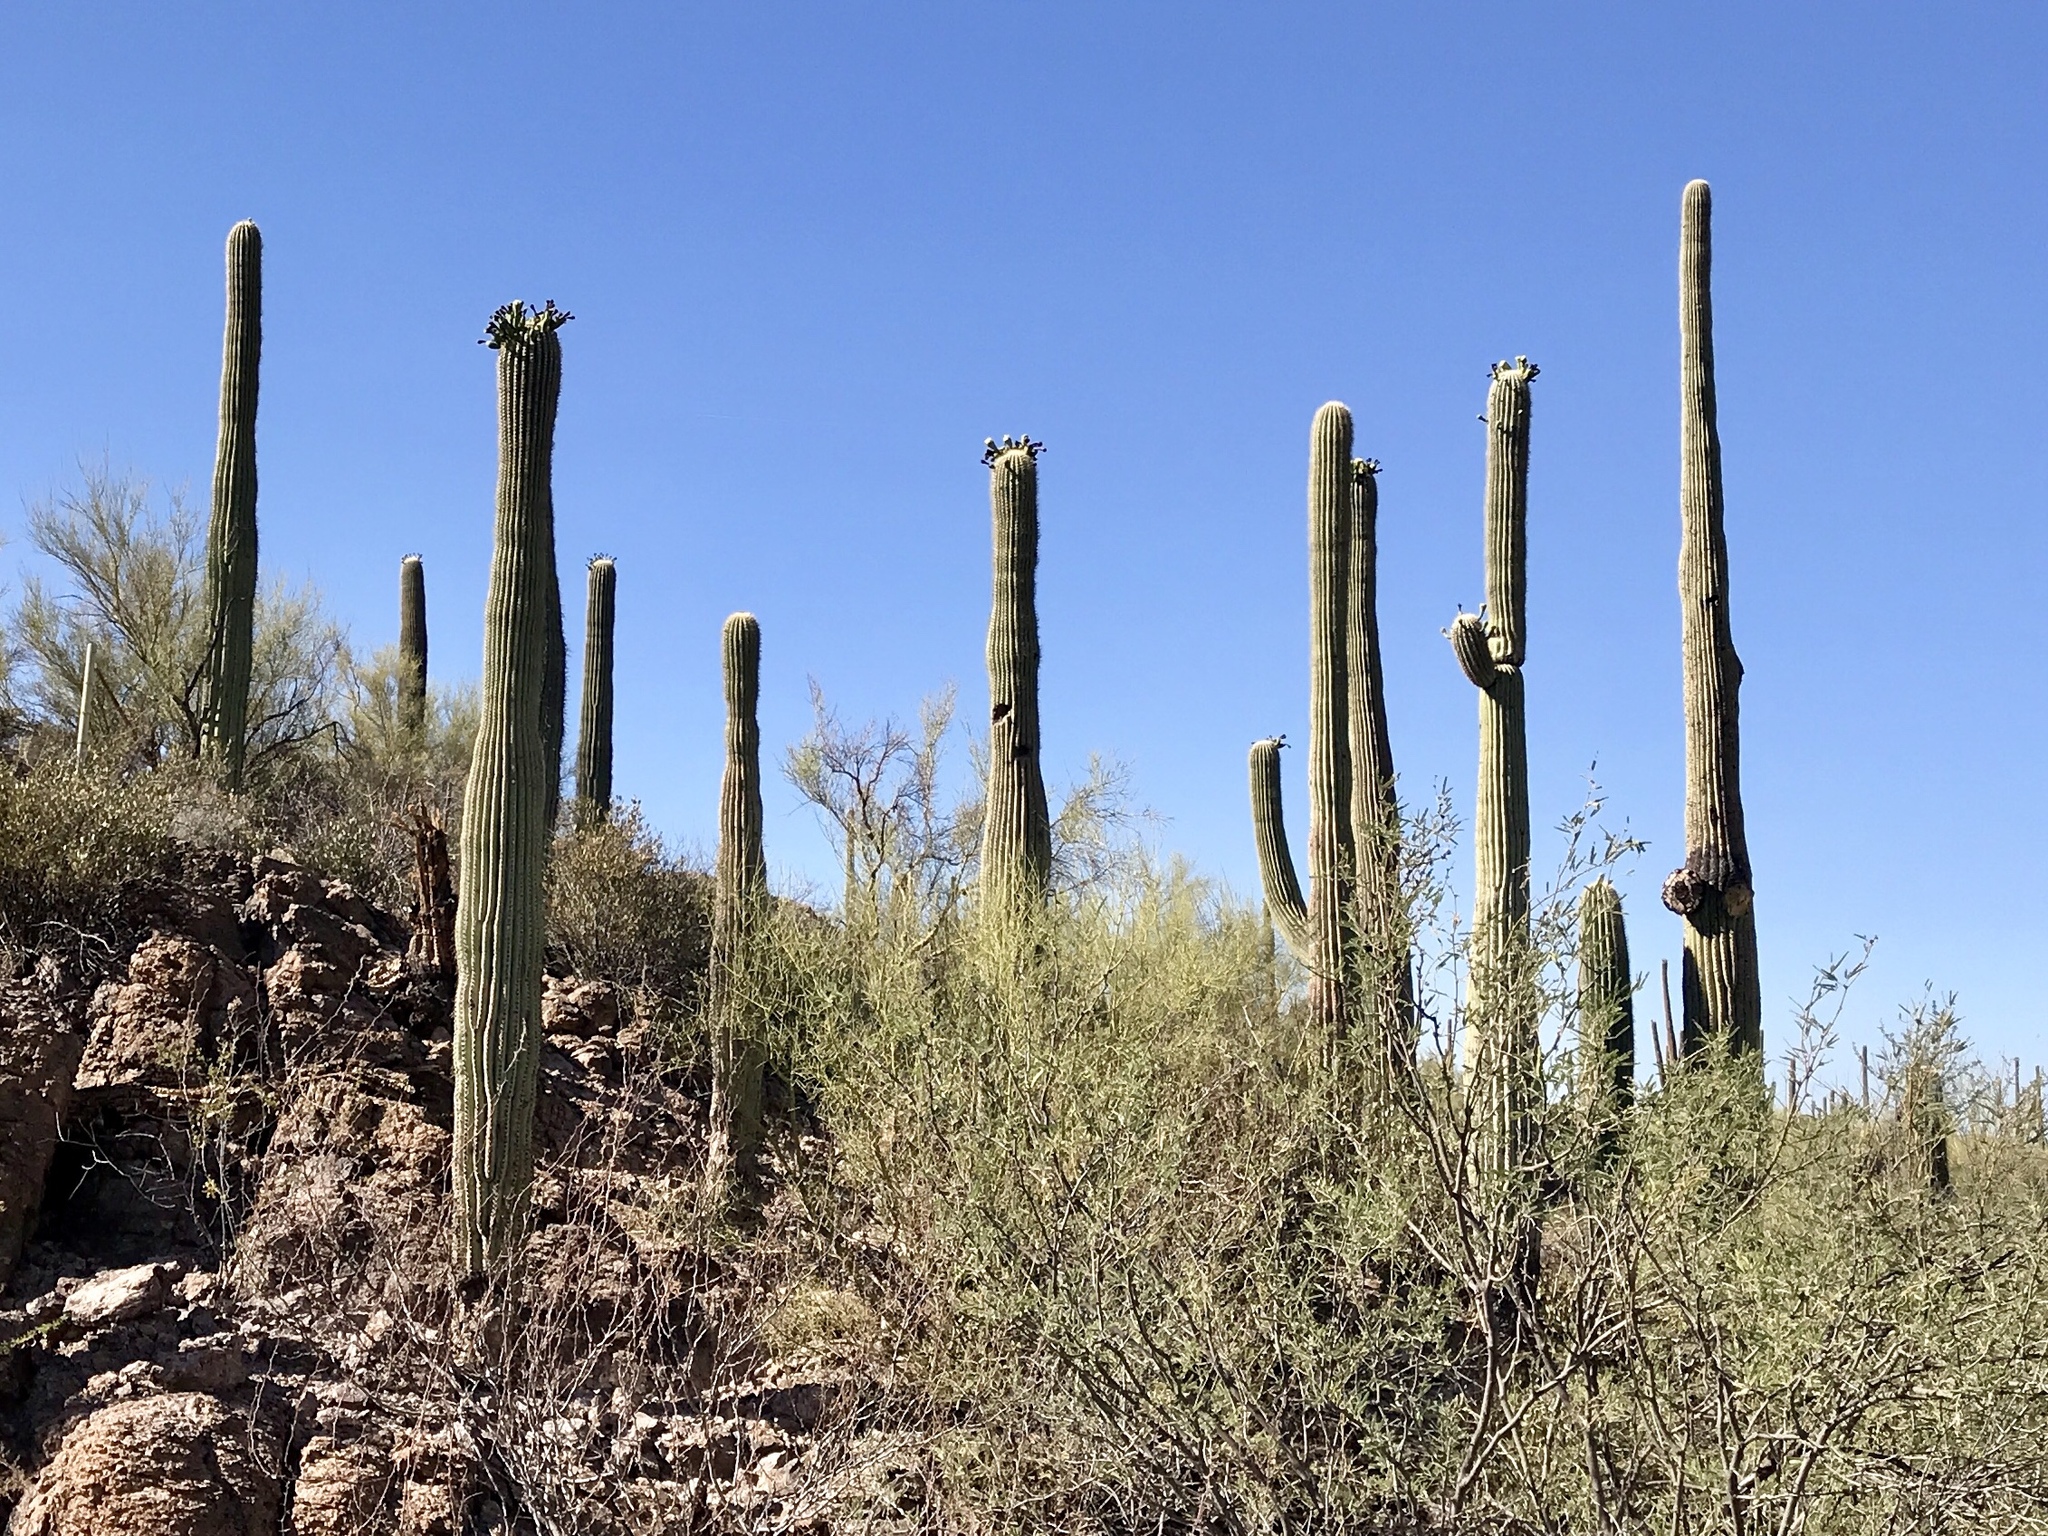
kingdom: Plantae
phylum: Tracheophyta
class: Magnoliopsida
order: Caryophyllales
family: Cactaceae
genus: Carnegiea
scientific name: Carnegiea gigantea
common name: Saguaro
